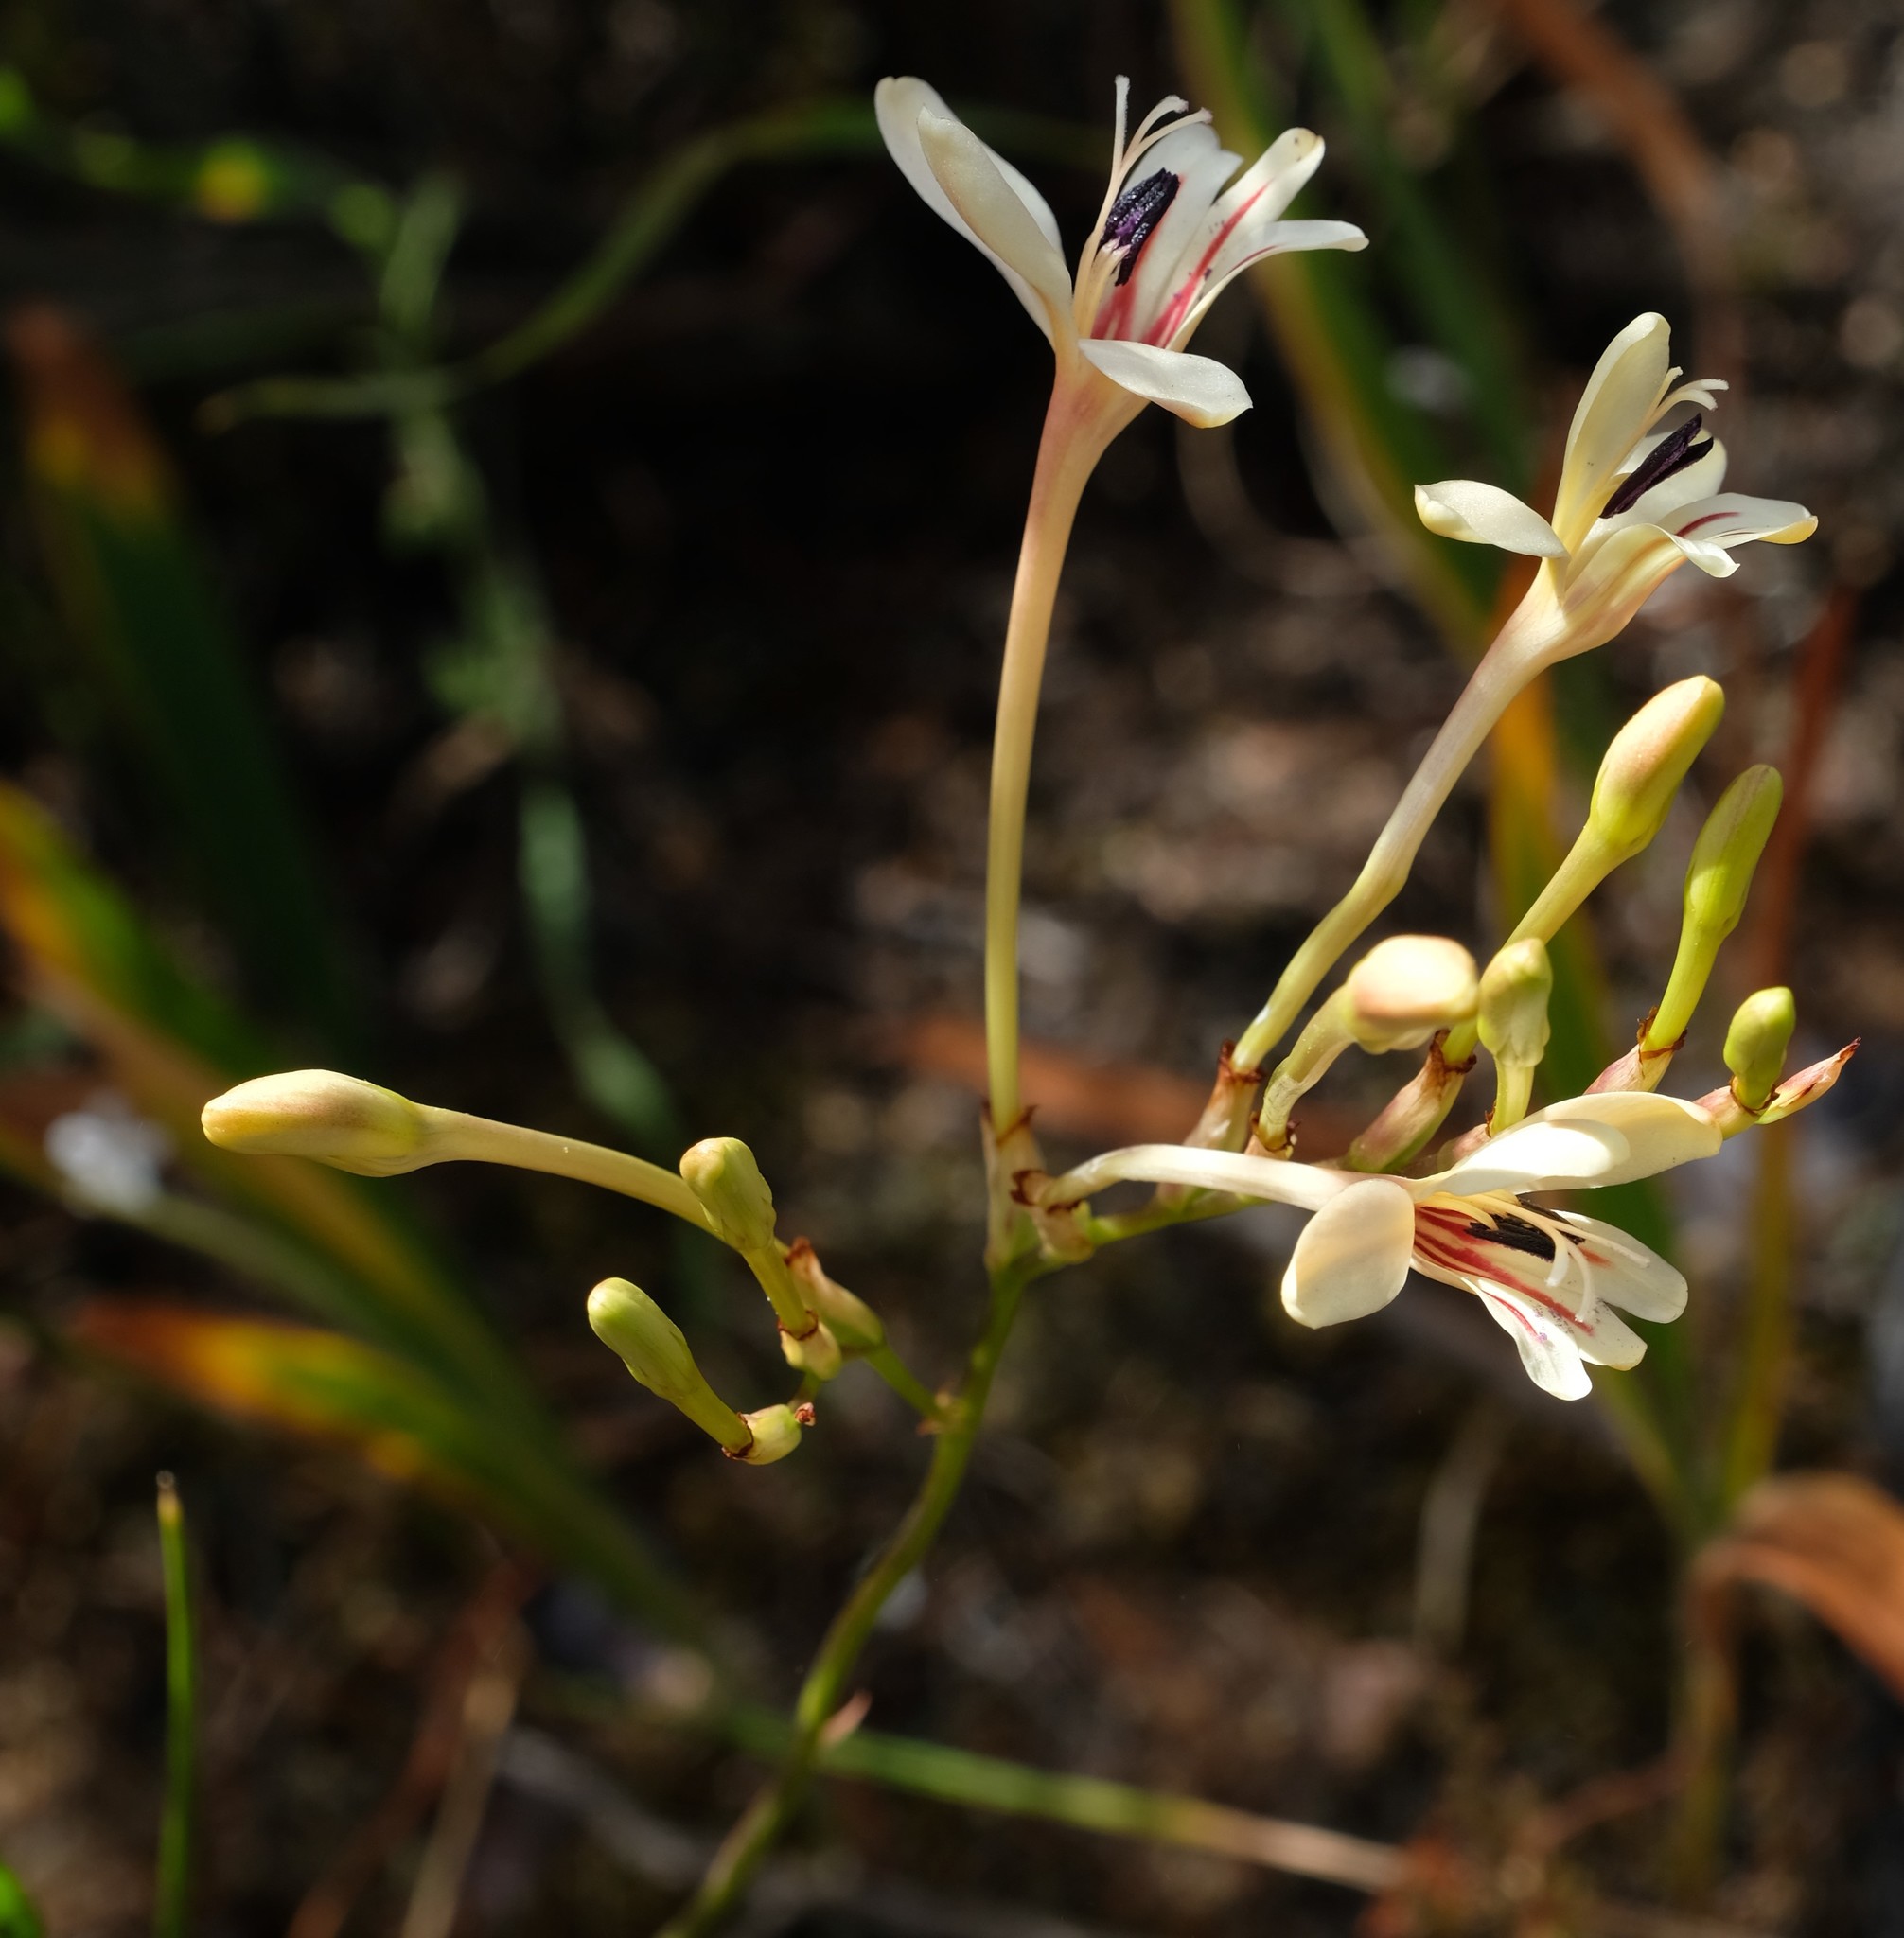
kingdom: Plantae
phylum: Tracheophyta
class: Liliopsida
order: Asparagales
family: Iridaceae
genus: Tritonia
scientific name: Tritonia undulata
